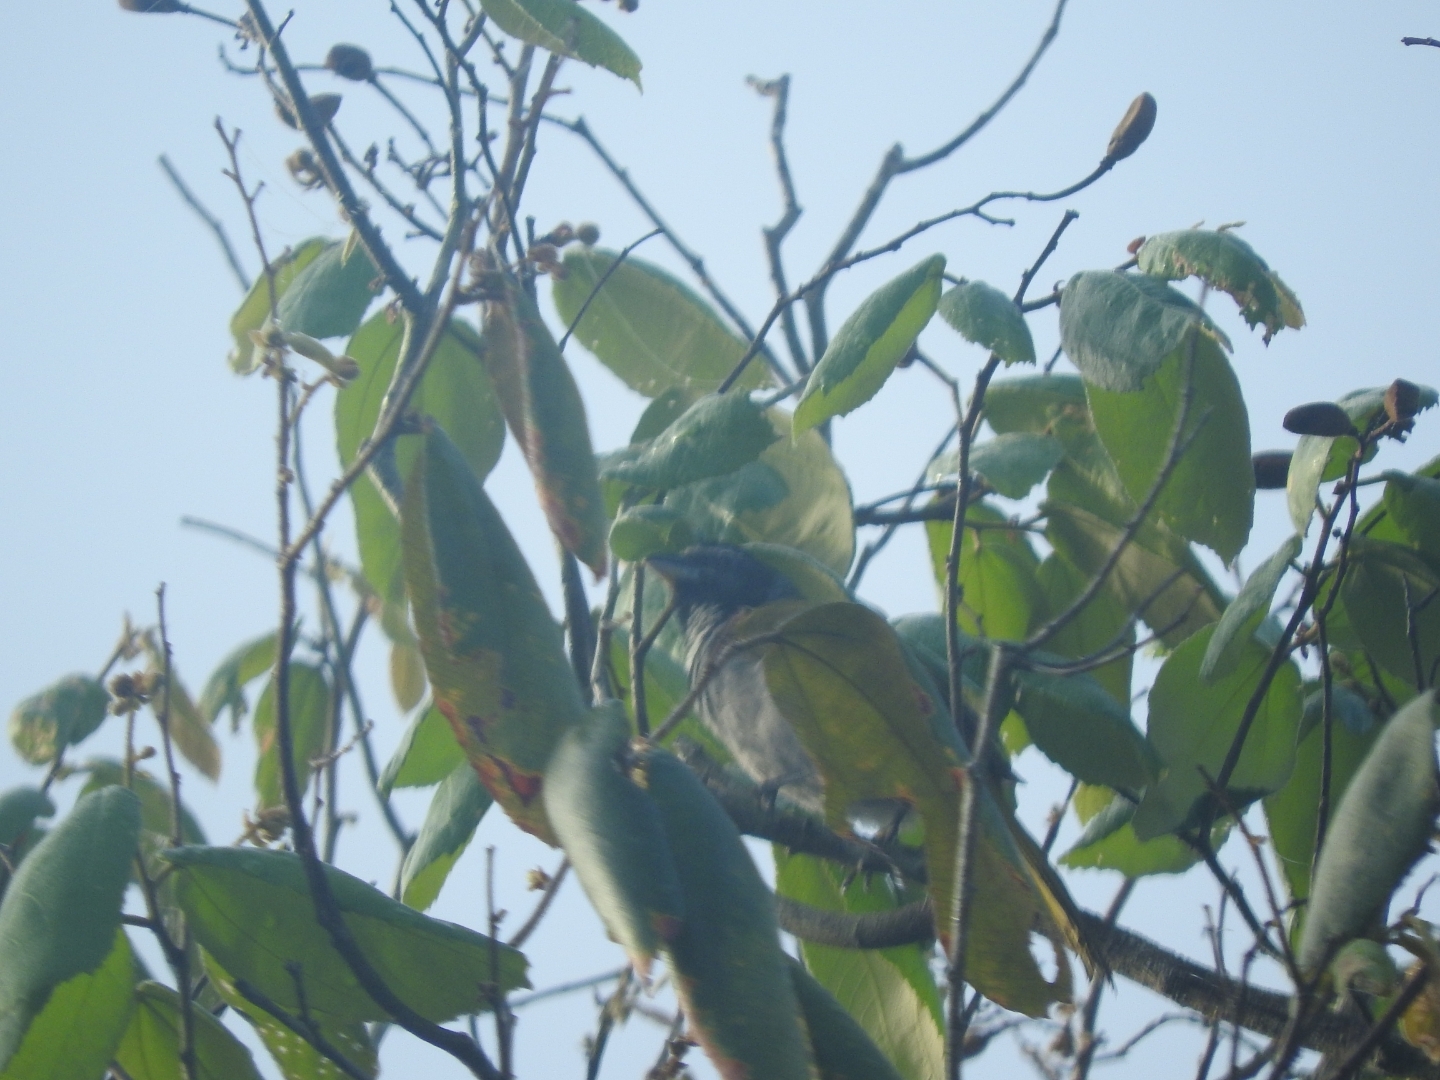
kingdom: Animalia
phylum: Chordata
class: Aves
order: Passeriformes
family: Thraupidae
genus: Saltator
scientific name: Saltator grandis
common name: Cinnamon-bellied saltator
